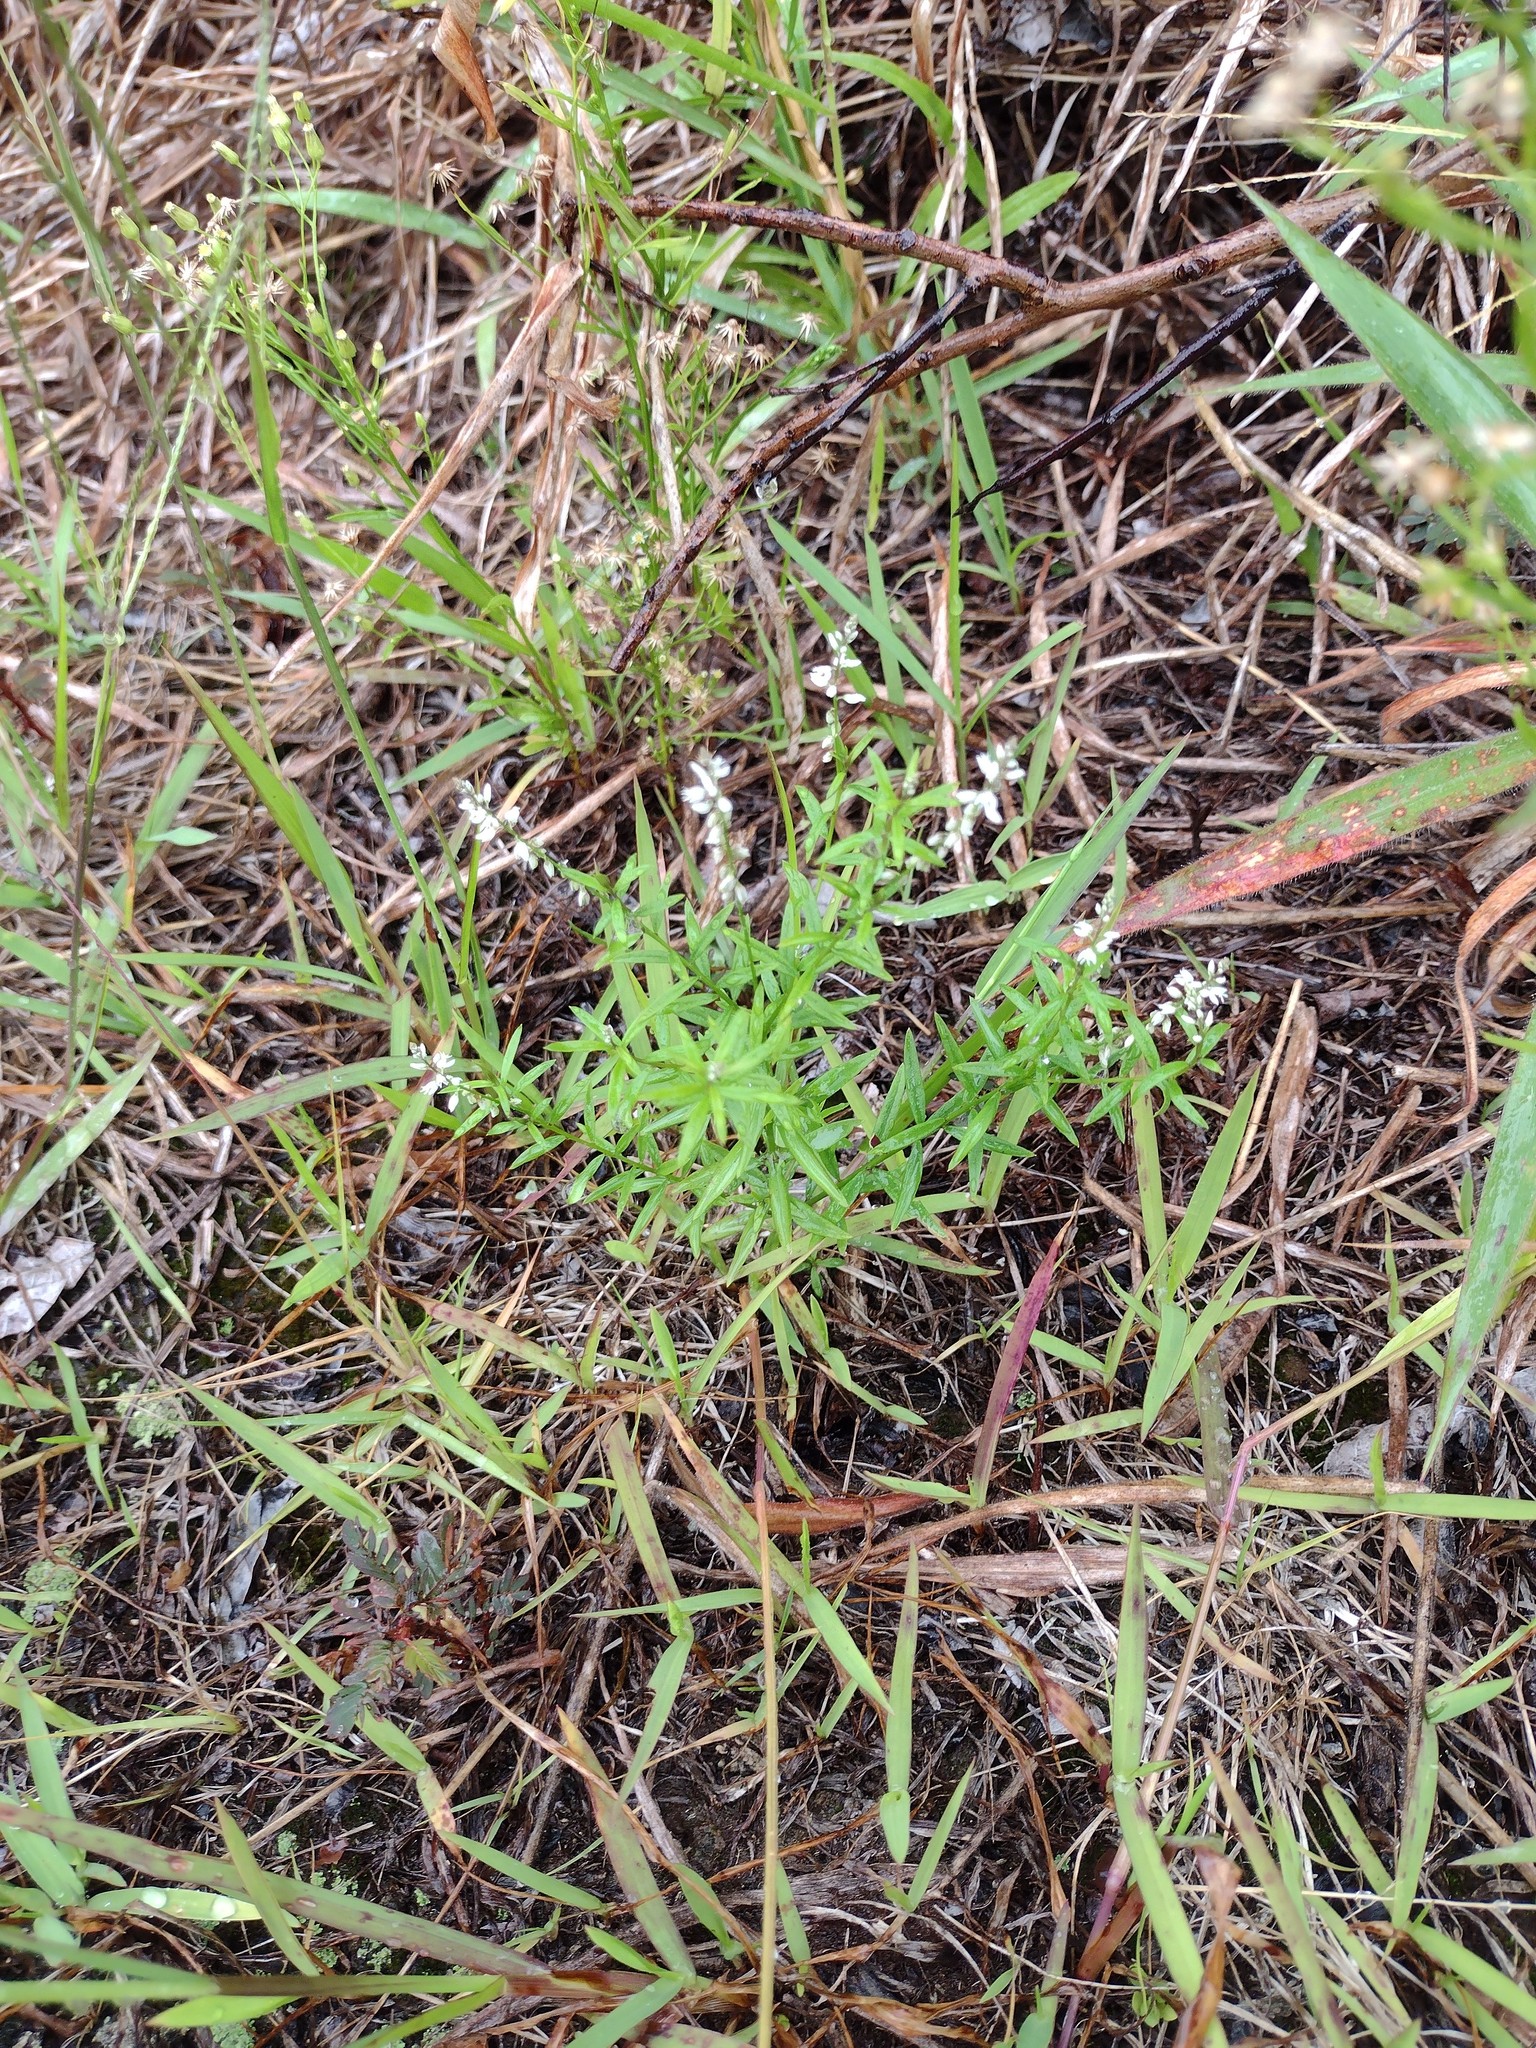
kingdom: Plantae
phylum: Tracheophyta
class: Magnoliopsida
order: Fabales
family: Polygalaceae
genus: Polygala
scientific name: Polygala paniculata
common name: Orosne
